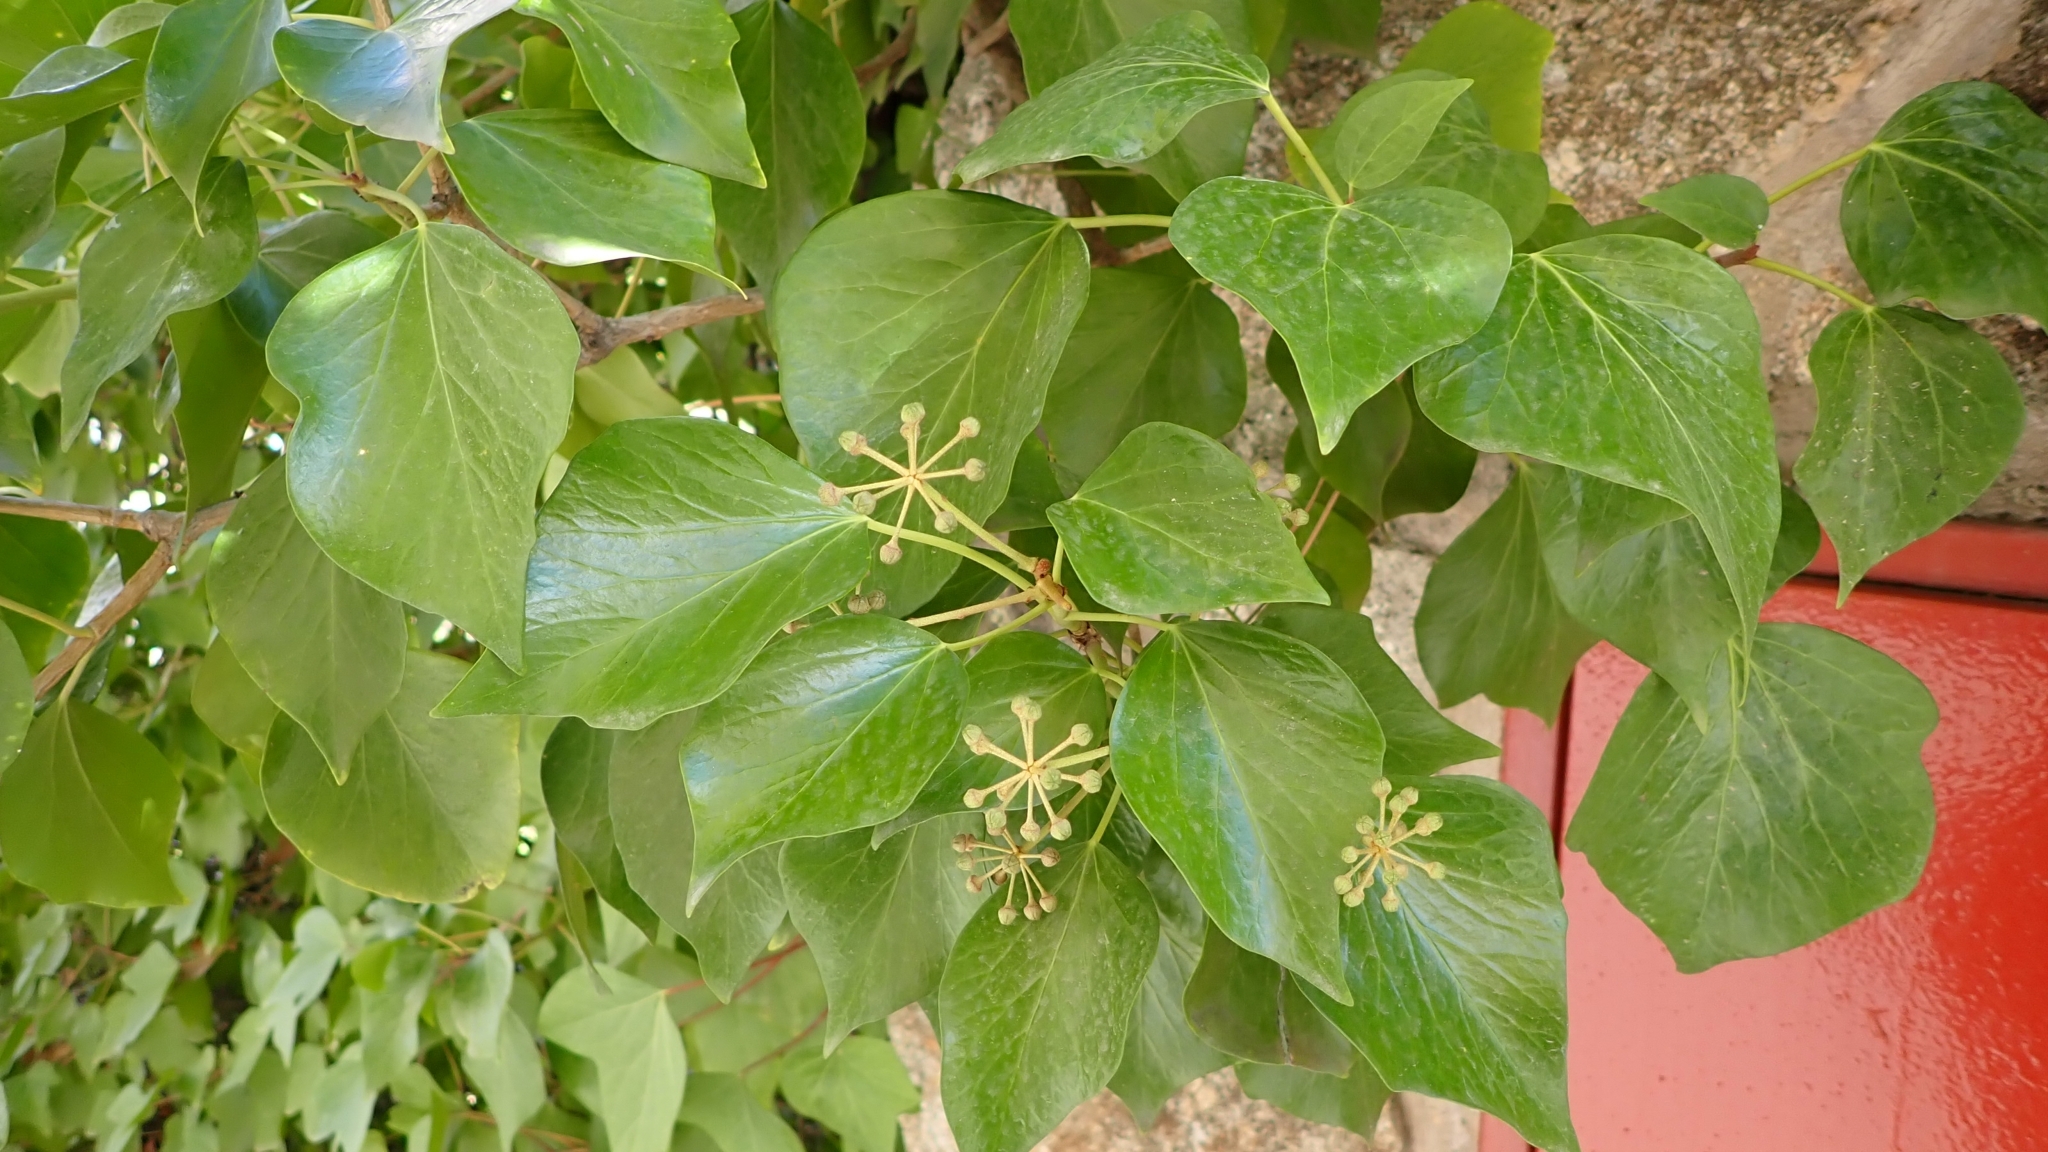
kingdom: Plantae
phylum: Tracheophyta
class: Magnoliopsida
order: Apiales
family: Araliaceae
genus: Hedera
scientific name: Hedera helix
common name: Ivy
